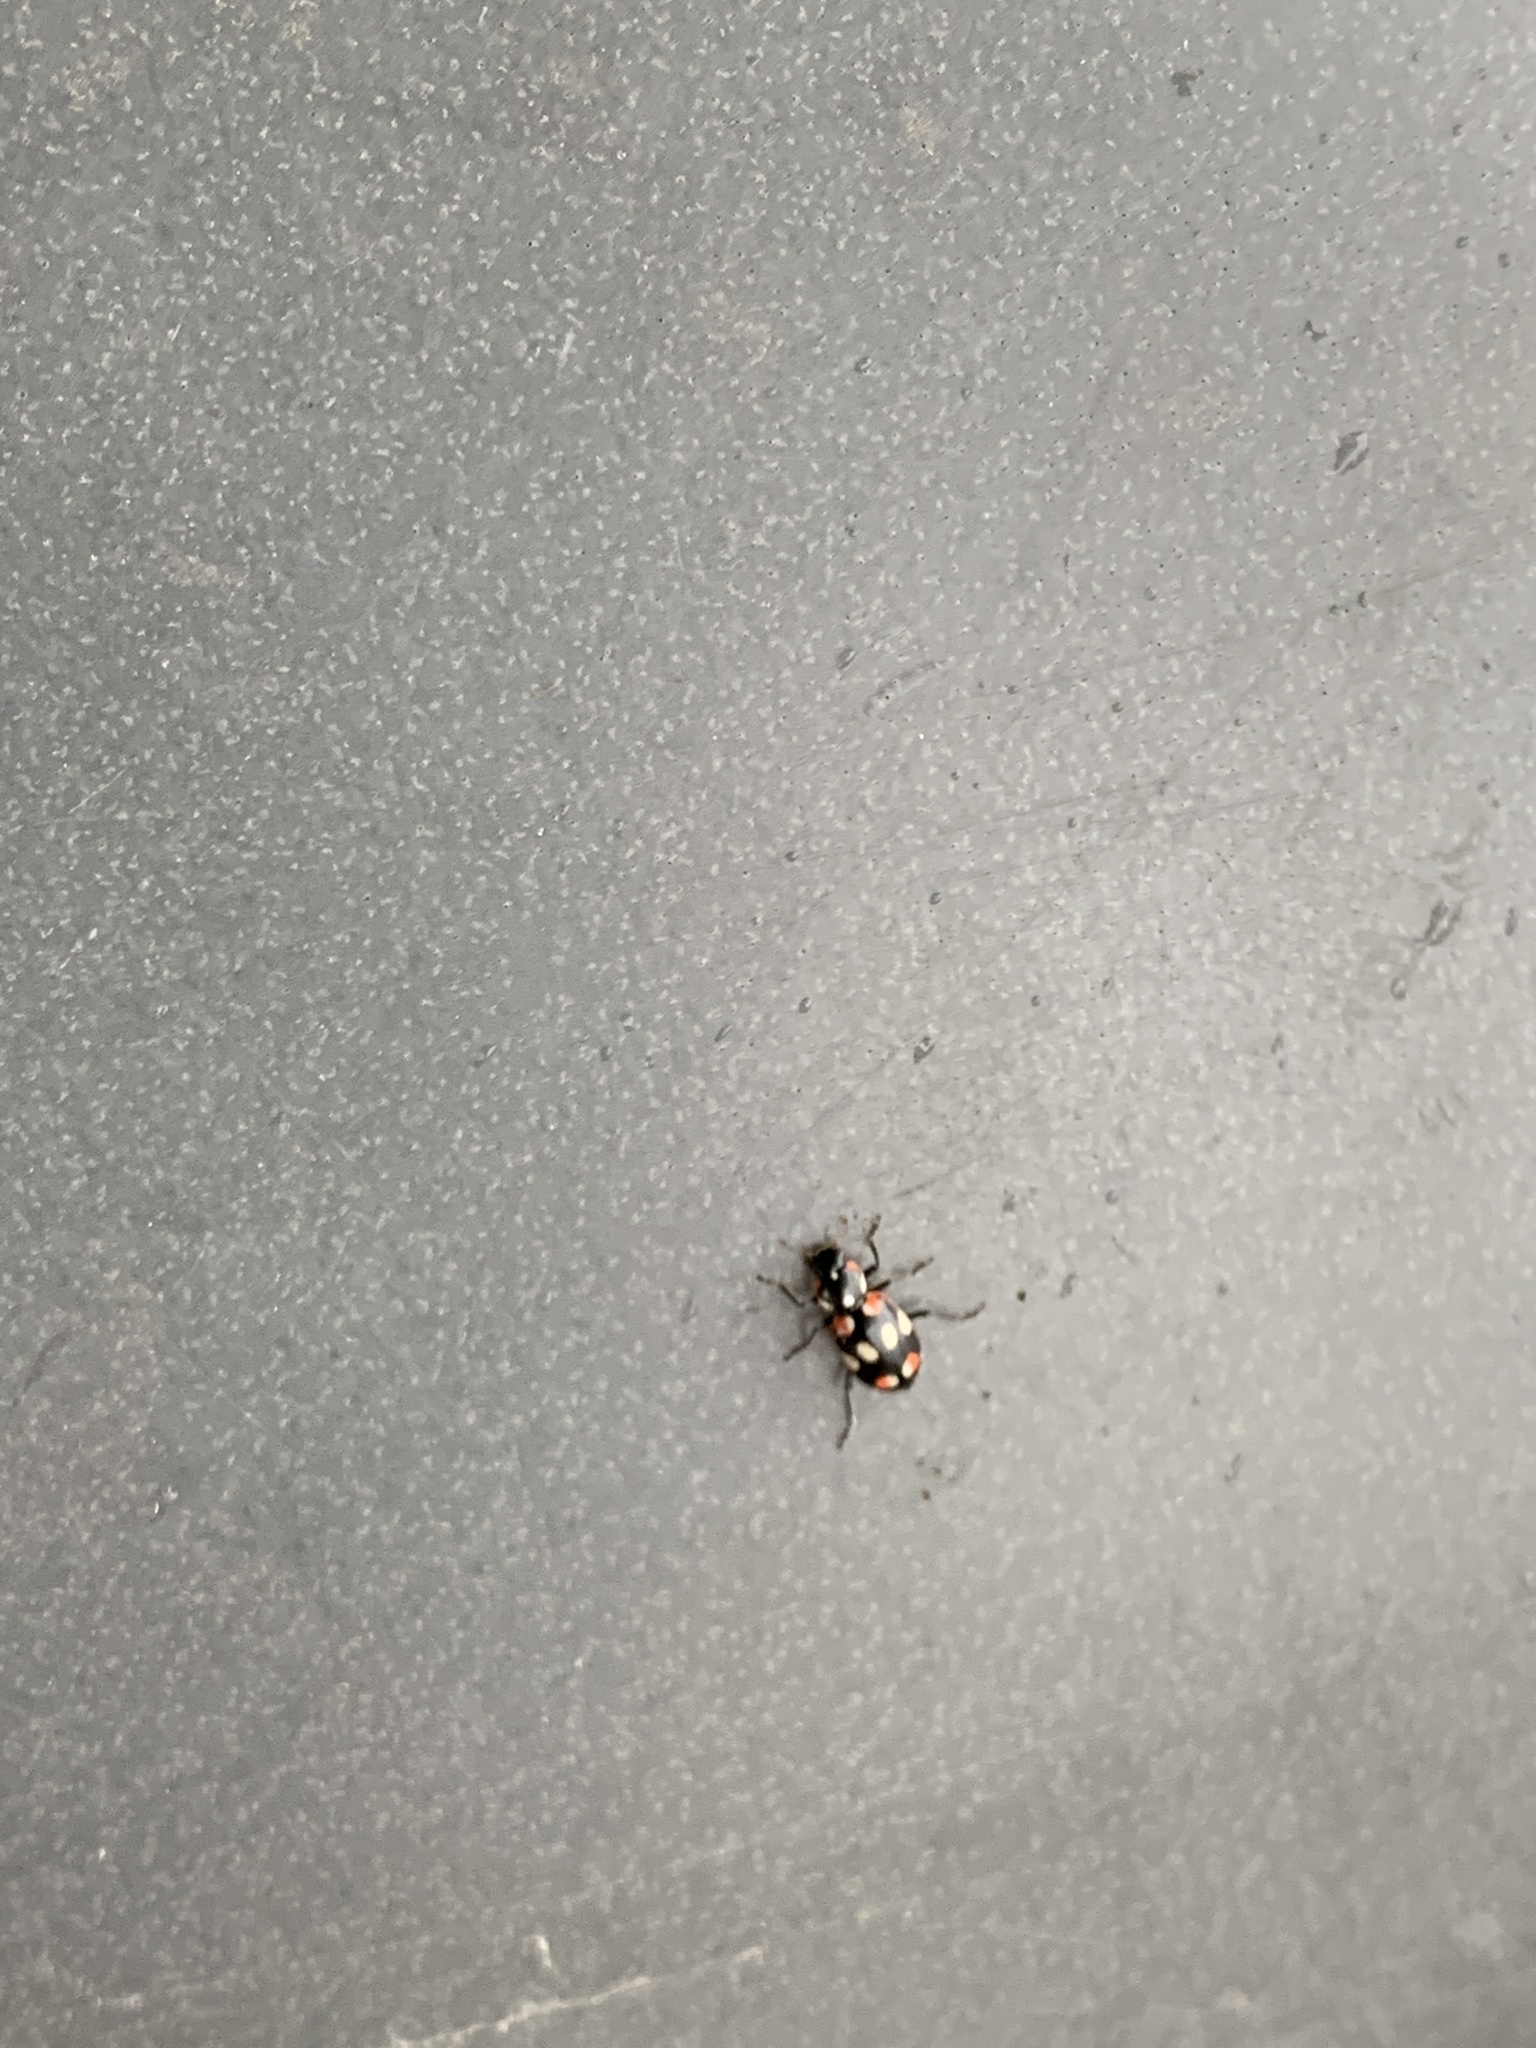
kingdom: Animalia
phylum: Arthropoda
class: Insecta
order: Coleoptera
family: Coccinellidae
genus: Eriopis
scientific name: Eriopis connexa
